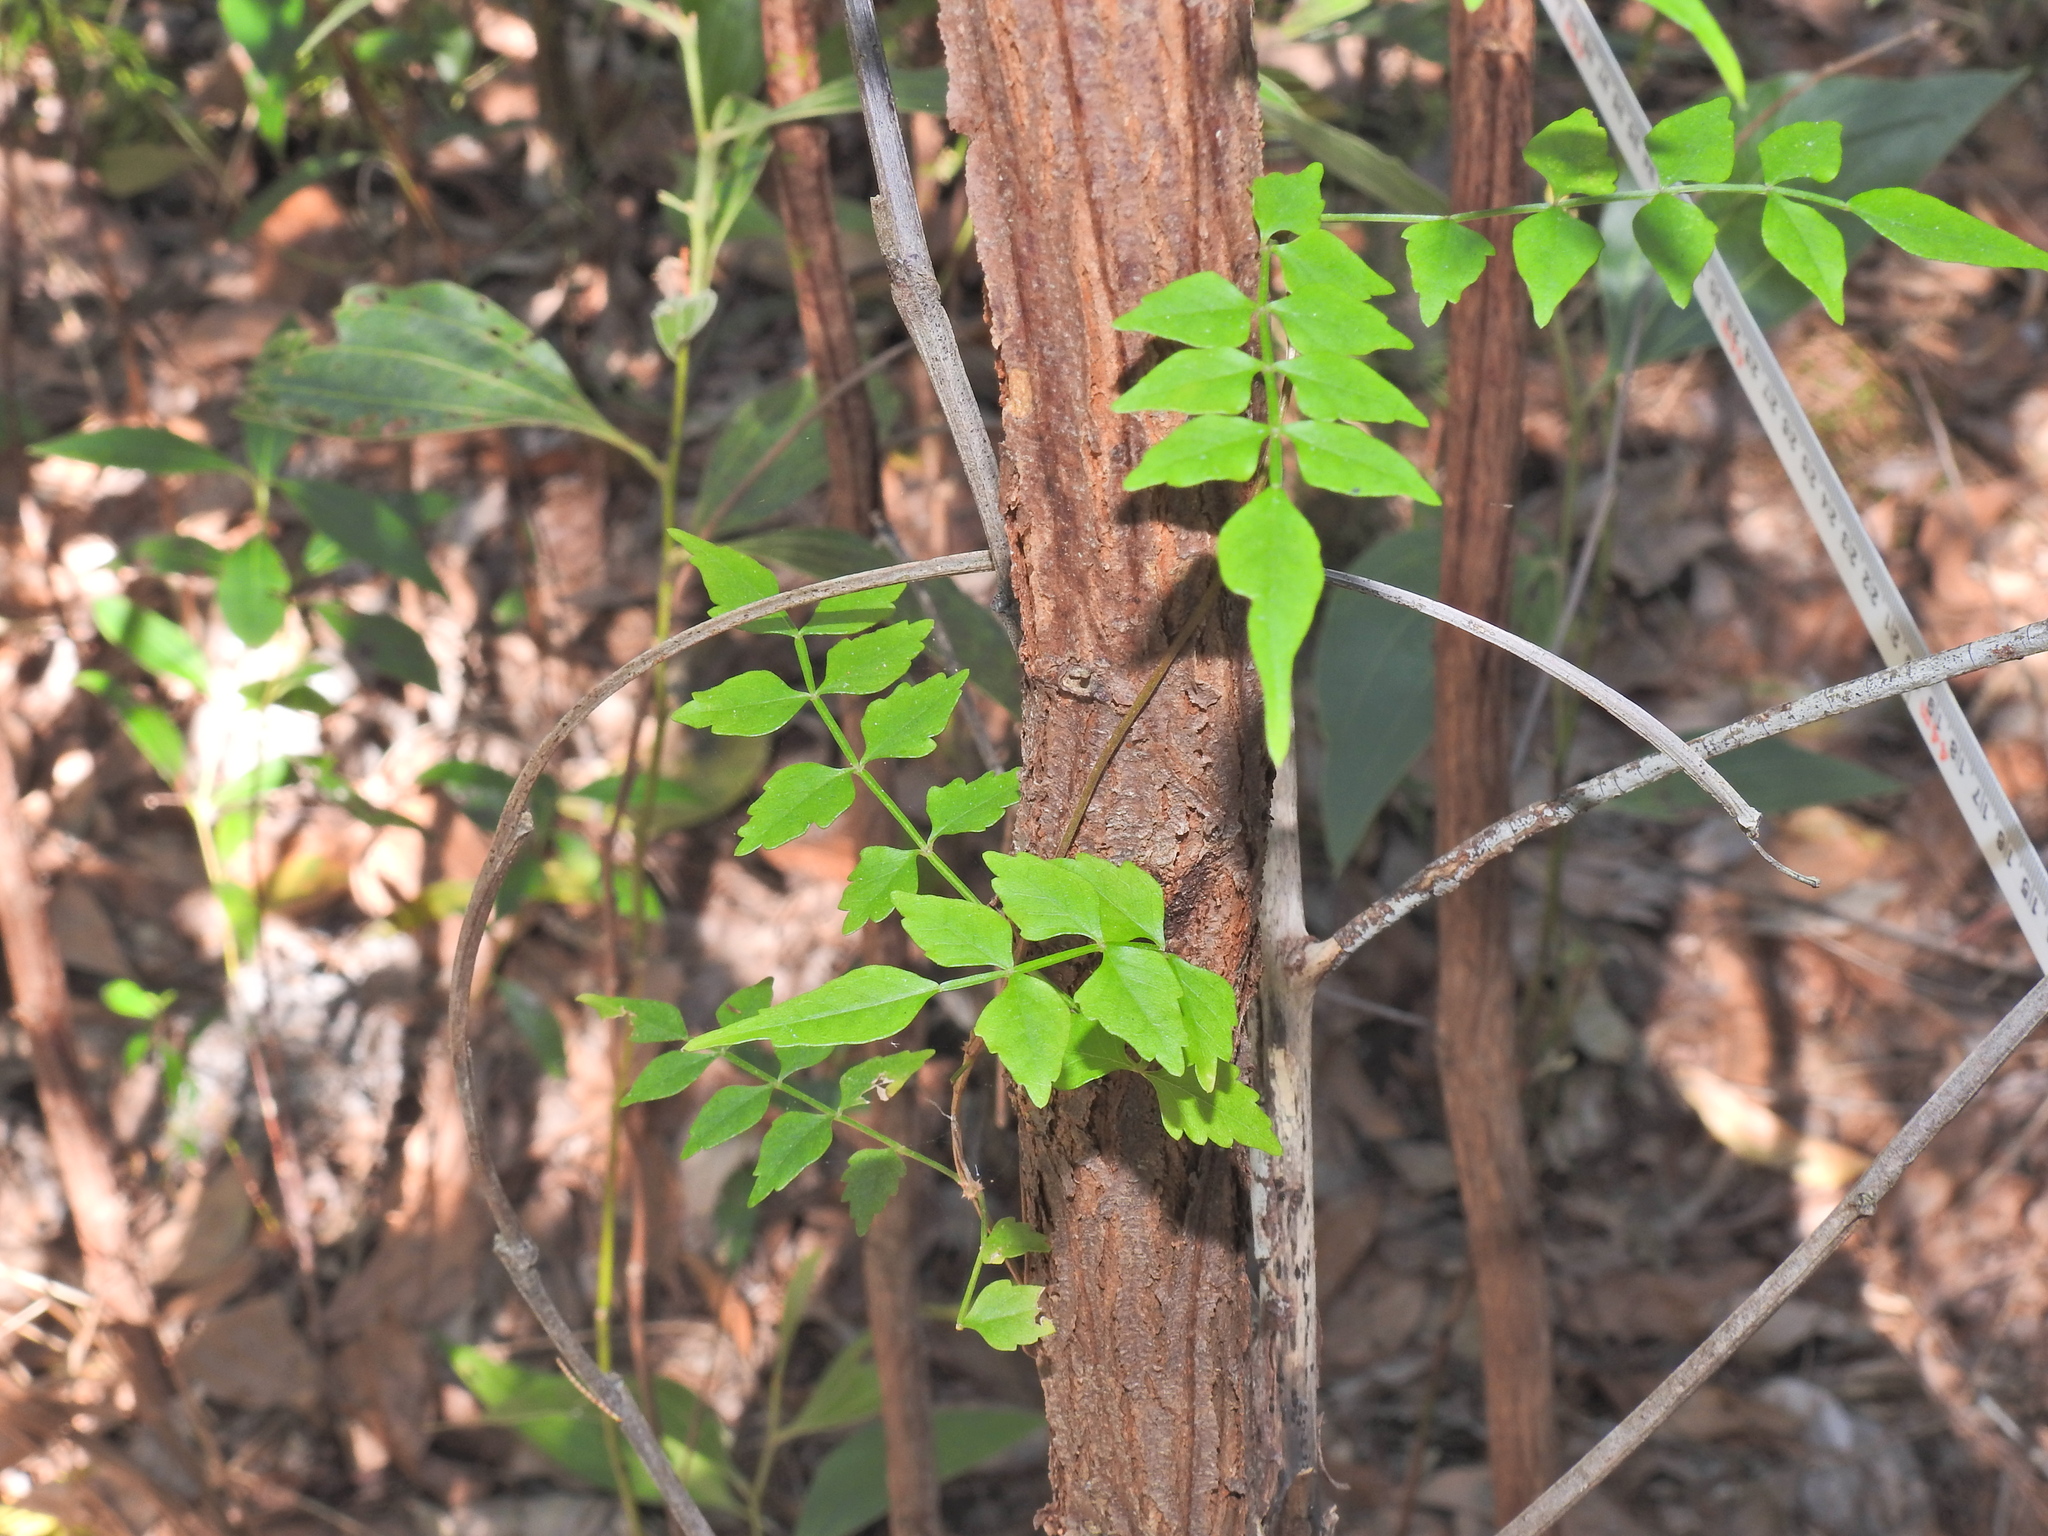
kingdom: Plantae
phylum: Tracheophyta
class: Magnoliopsida
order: Lamiales
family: Bignoniaceae
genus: Pandorea
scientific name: Pandorea pandorana
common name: Wonga-wonga-vine
